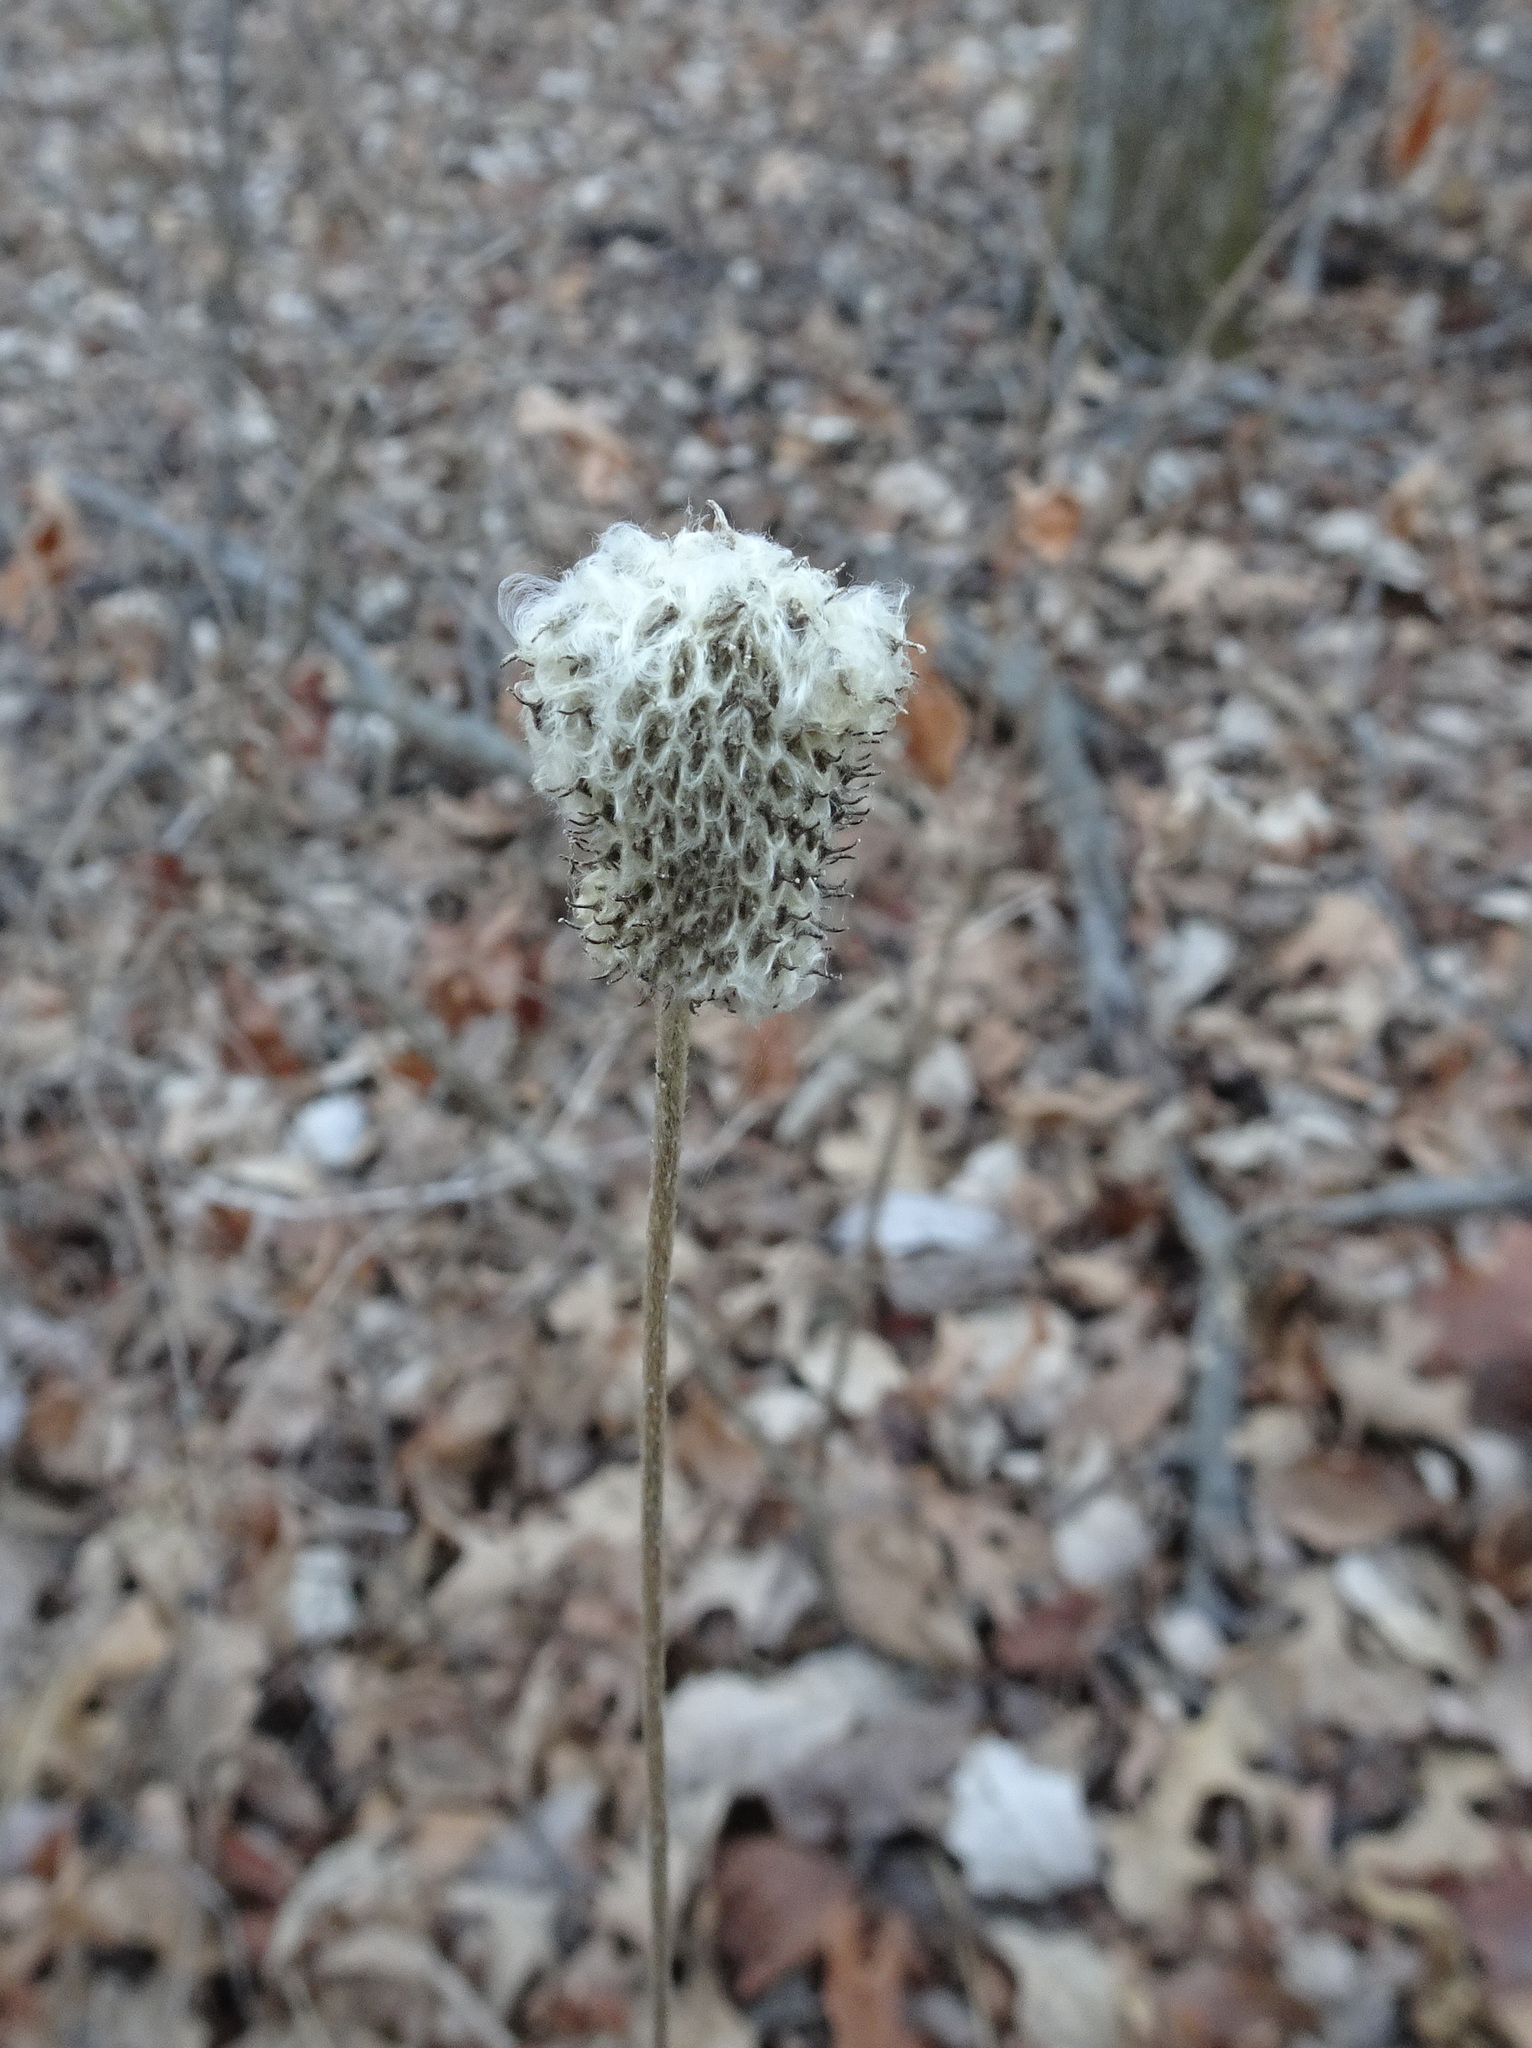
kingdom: Plantae
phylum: Tracheophyta
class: Magnoliopsida
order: Ranunculales
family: Ranunculaceae
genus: Anemone
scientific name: Anemone virginiana
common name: Tall anemone
